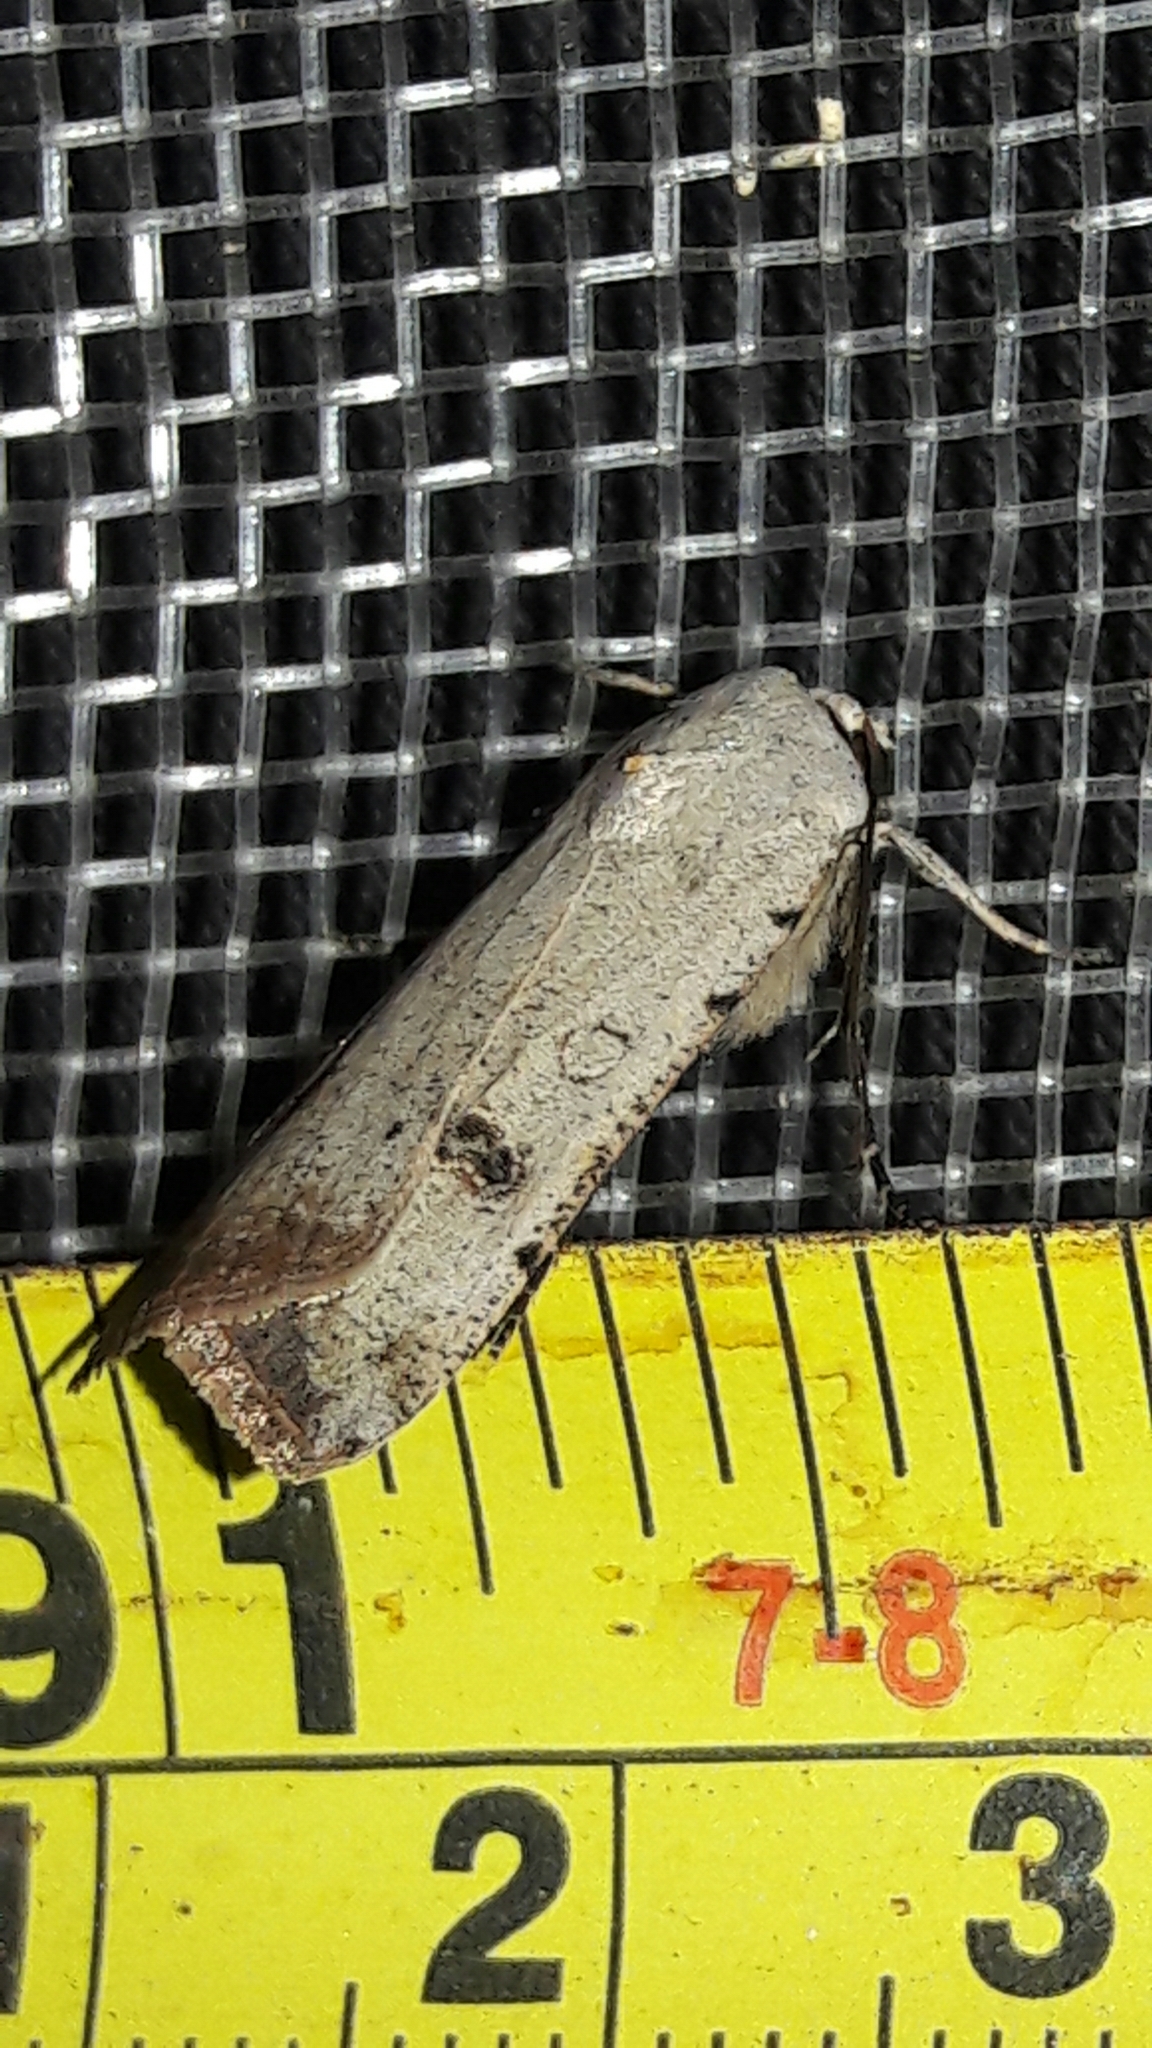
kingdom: Animalia
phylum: Arthropoda
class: Insecta
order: Lepidoptera
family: Noctuidae
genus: Anicla
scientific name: Anicla infecta
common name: Green cutworm
